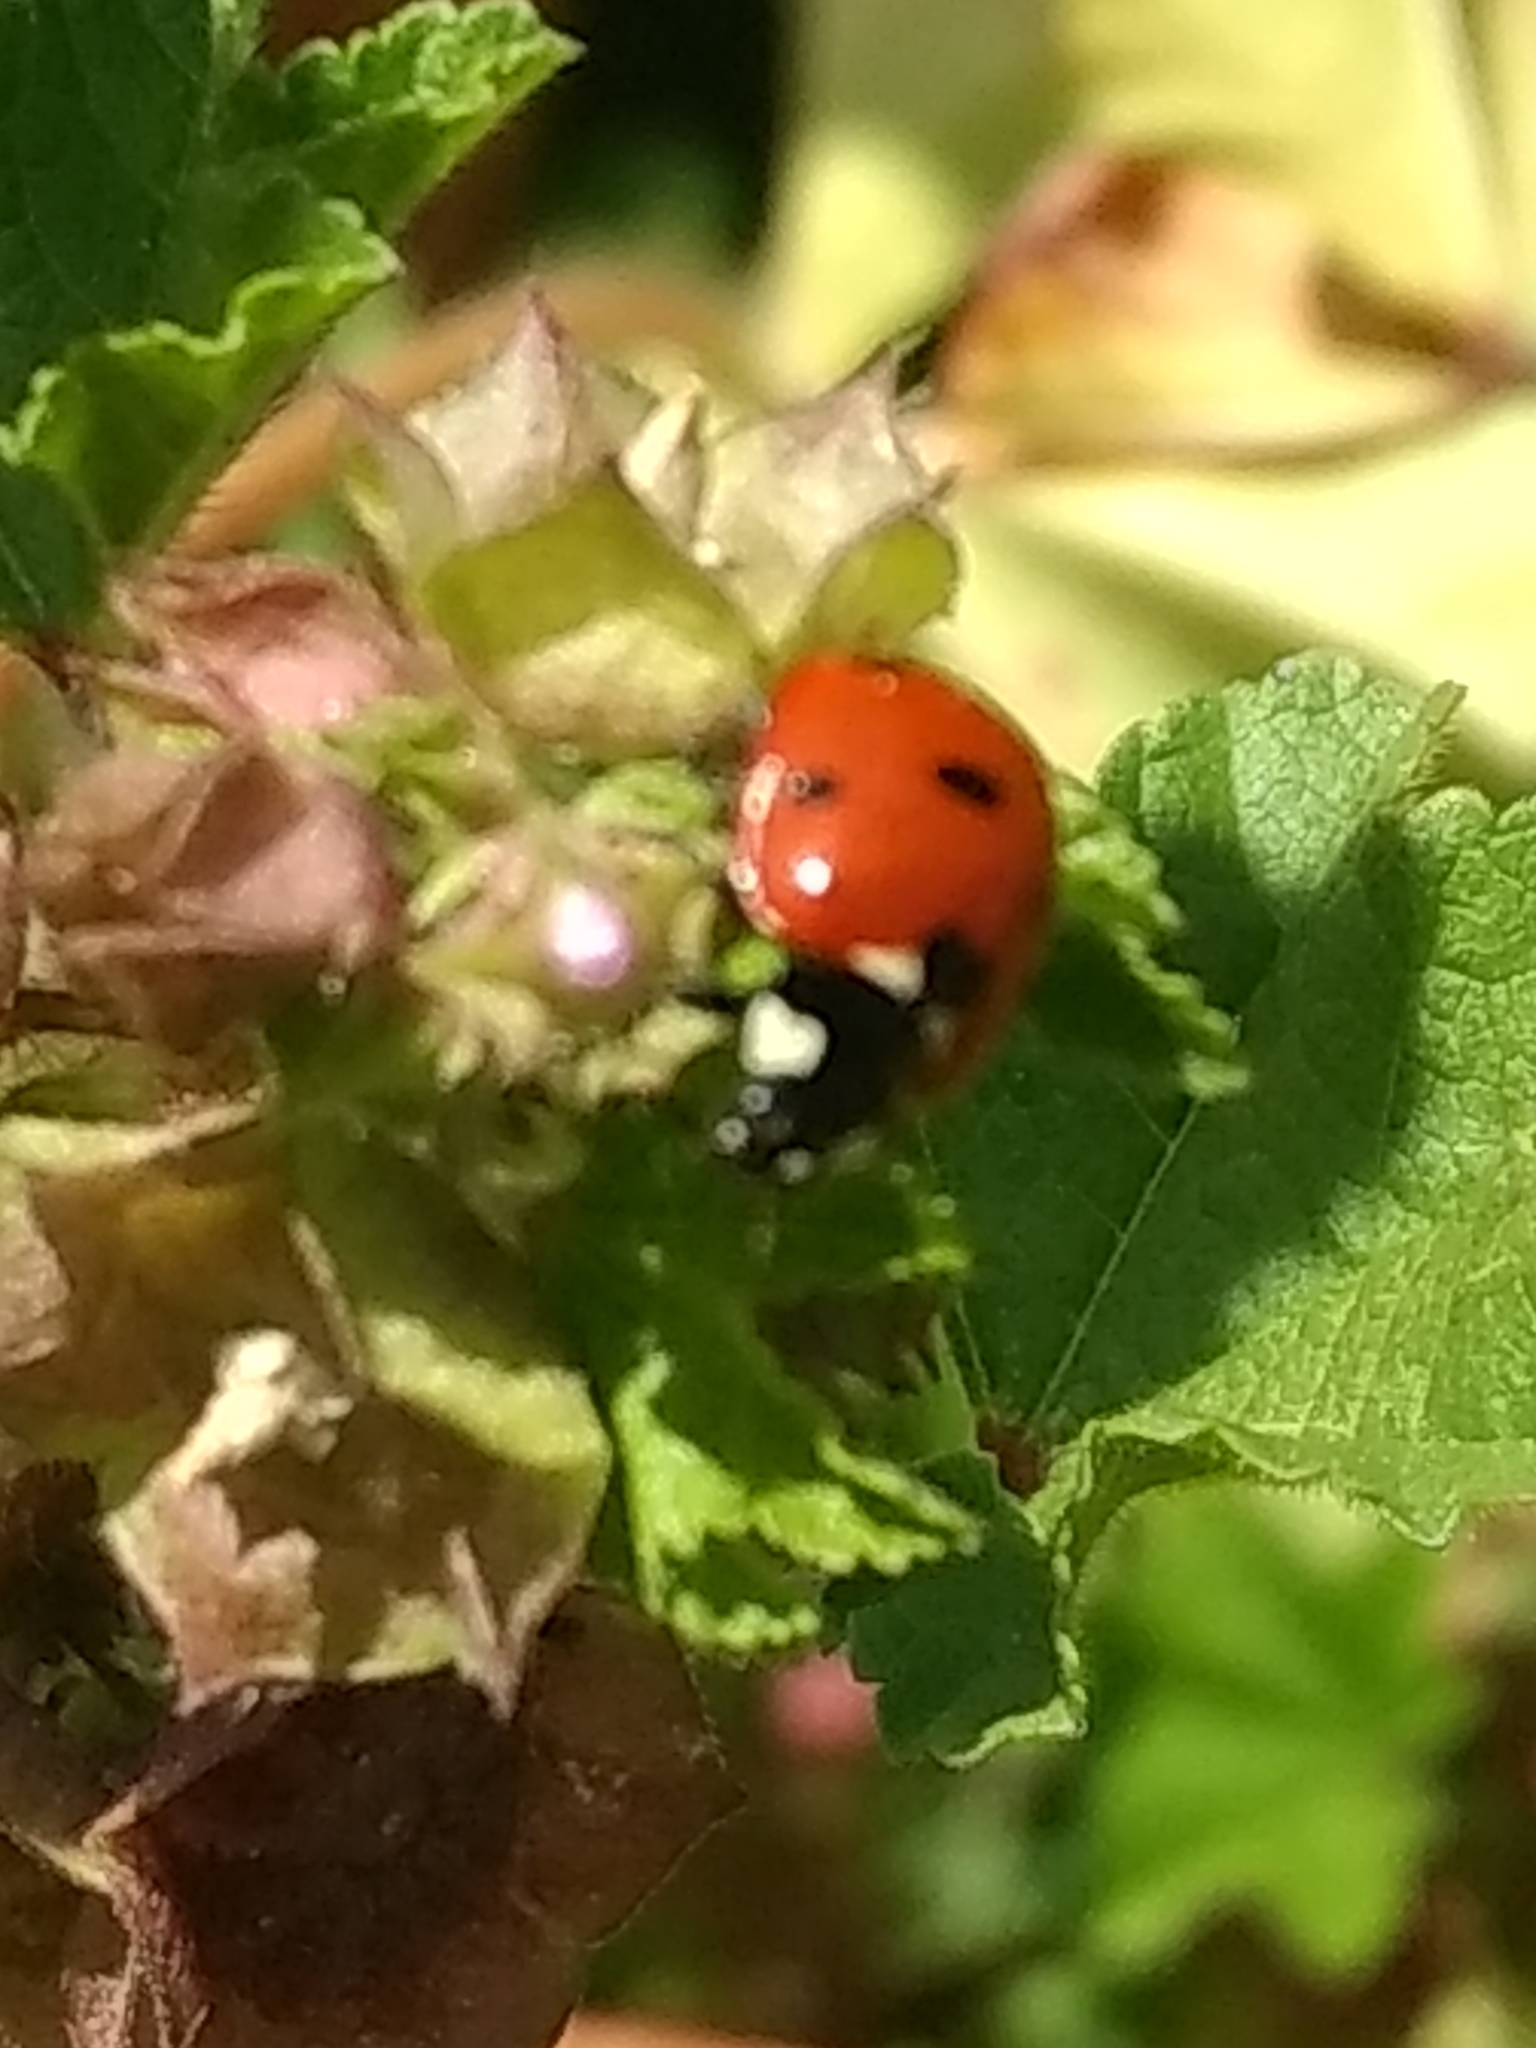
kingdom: Animalia
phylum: Arthropoda
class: Insecta
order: Coleoptera
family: Coccinellidae
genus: Coccinella
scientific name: Coccinella septempunctata
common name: Sevenspotted lady beetle
